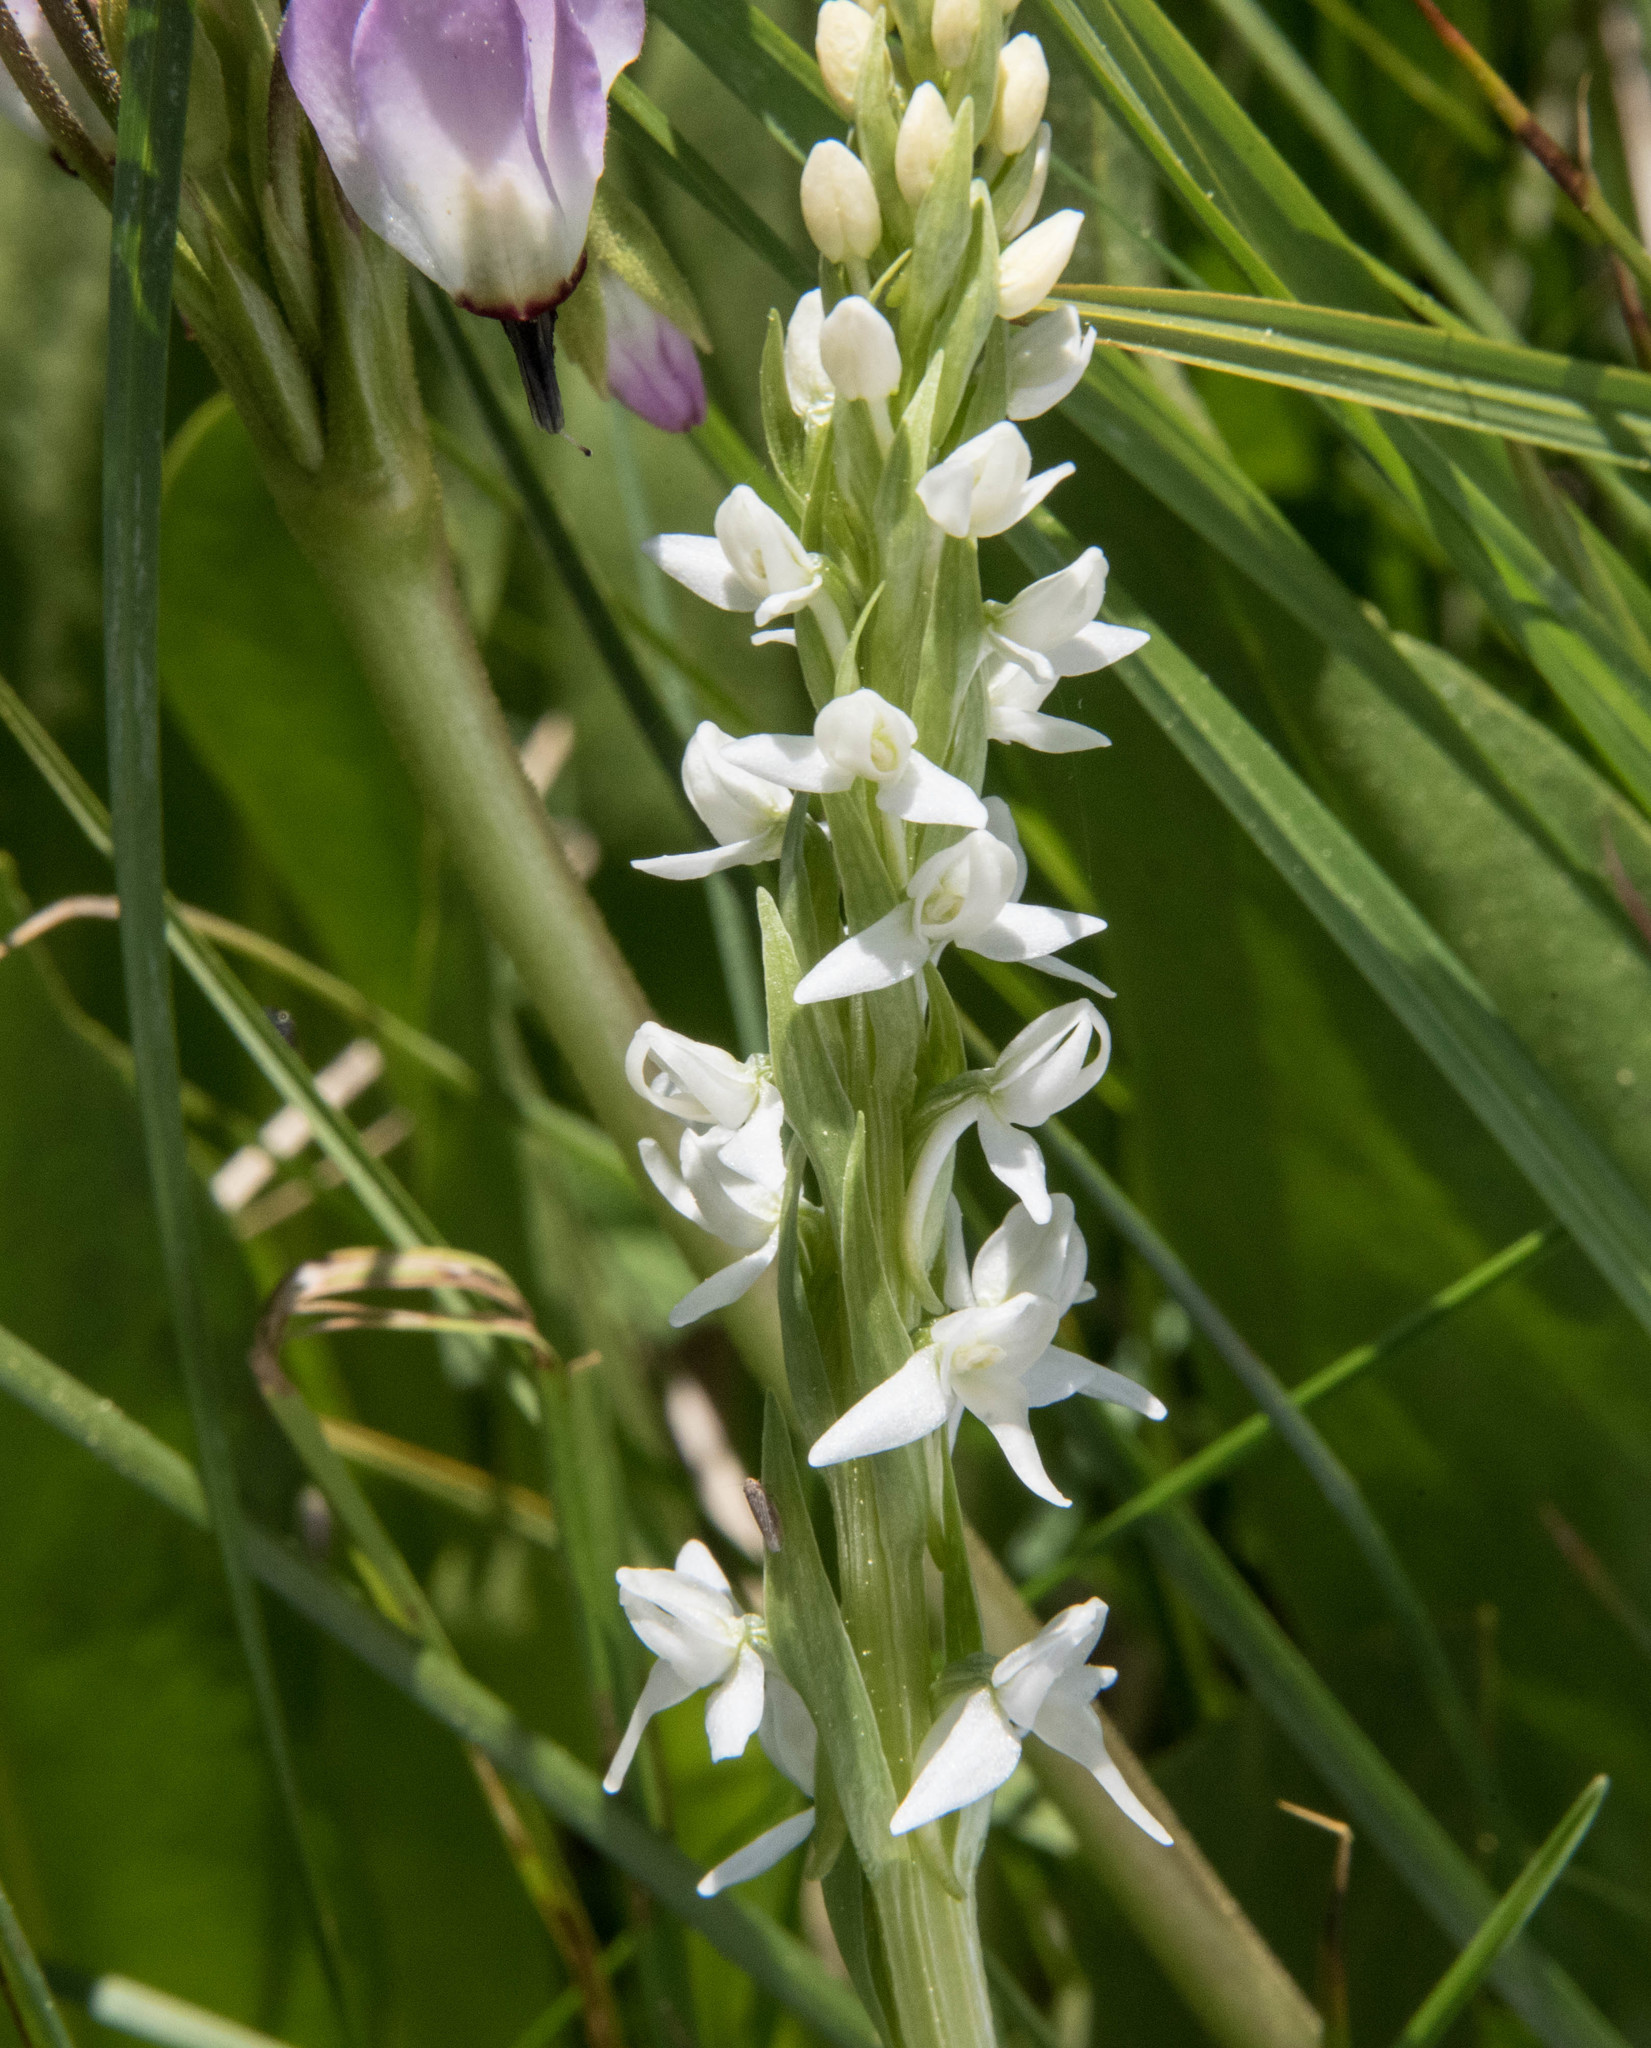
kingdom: Plantae
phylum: Tracheophyta
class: Liliopsida
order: Asparagales
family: Orchidaceae
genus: Platanthera
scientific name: Platanthera dilatata
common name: Bog candles
